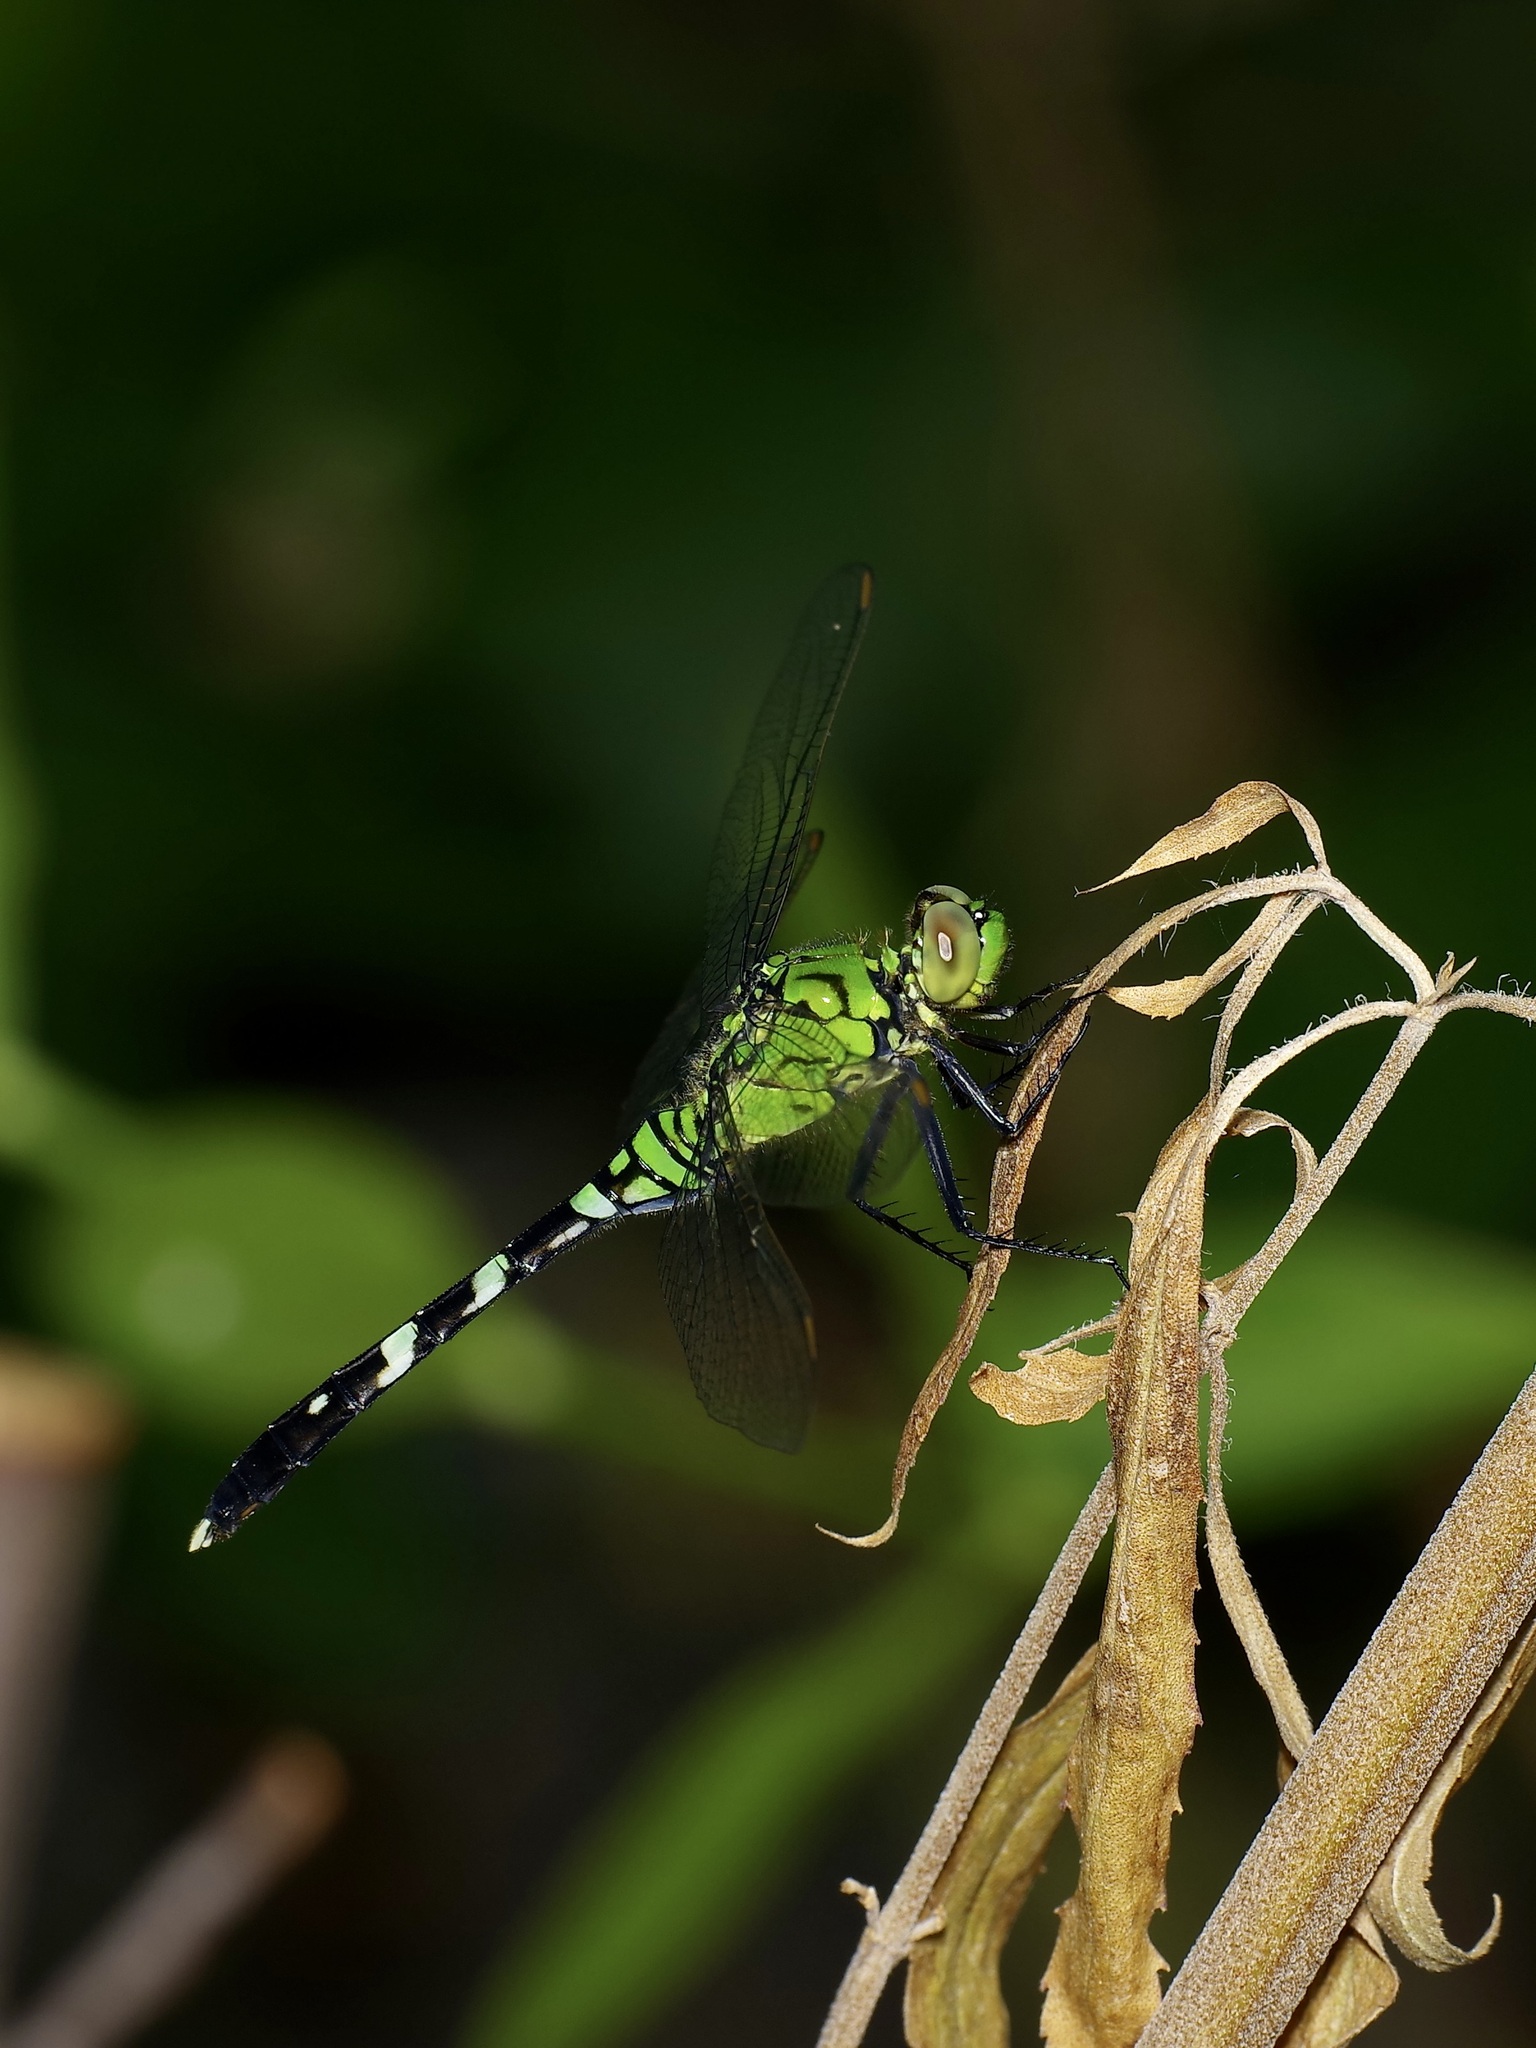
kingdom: Animalia
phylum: Arthropoda
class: Insecta
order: Odonata
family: Libellulidae
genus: Erythemis
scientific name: Erythemis simplicicollis
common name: Eastern pondhawk
